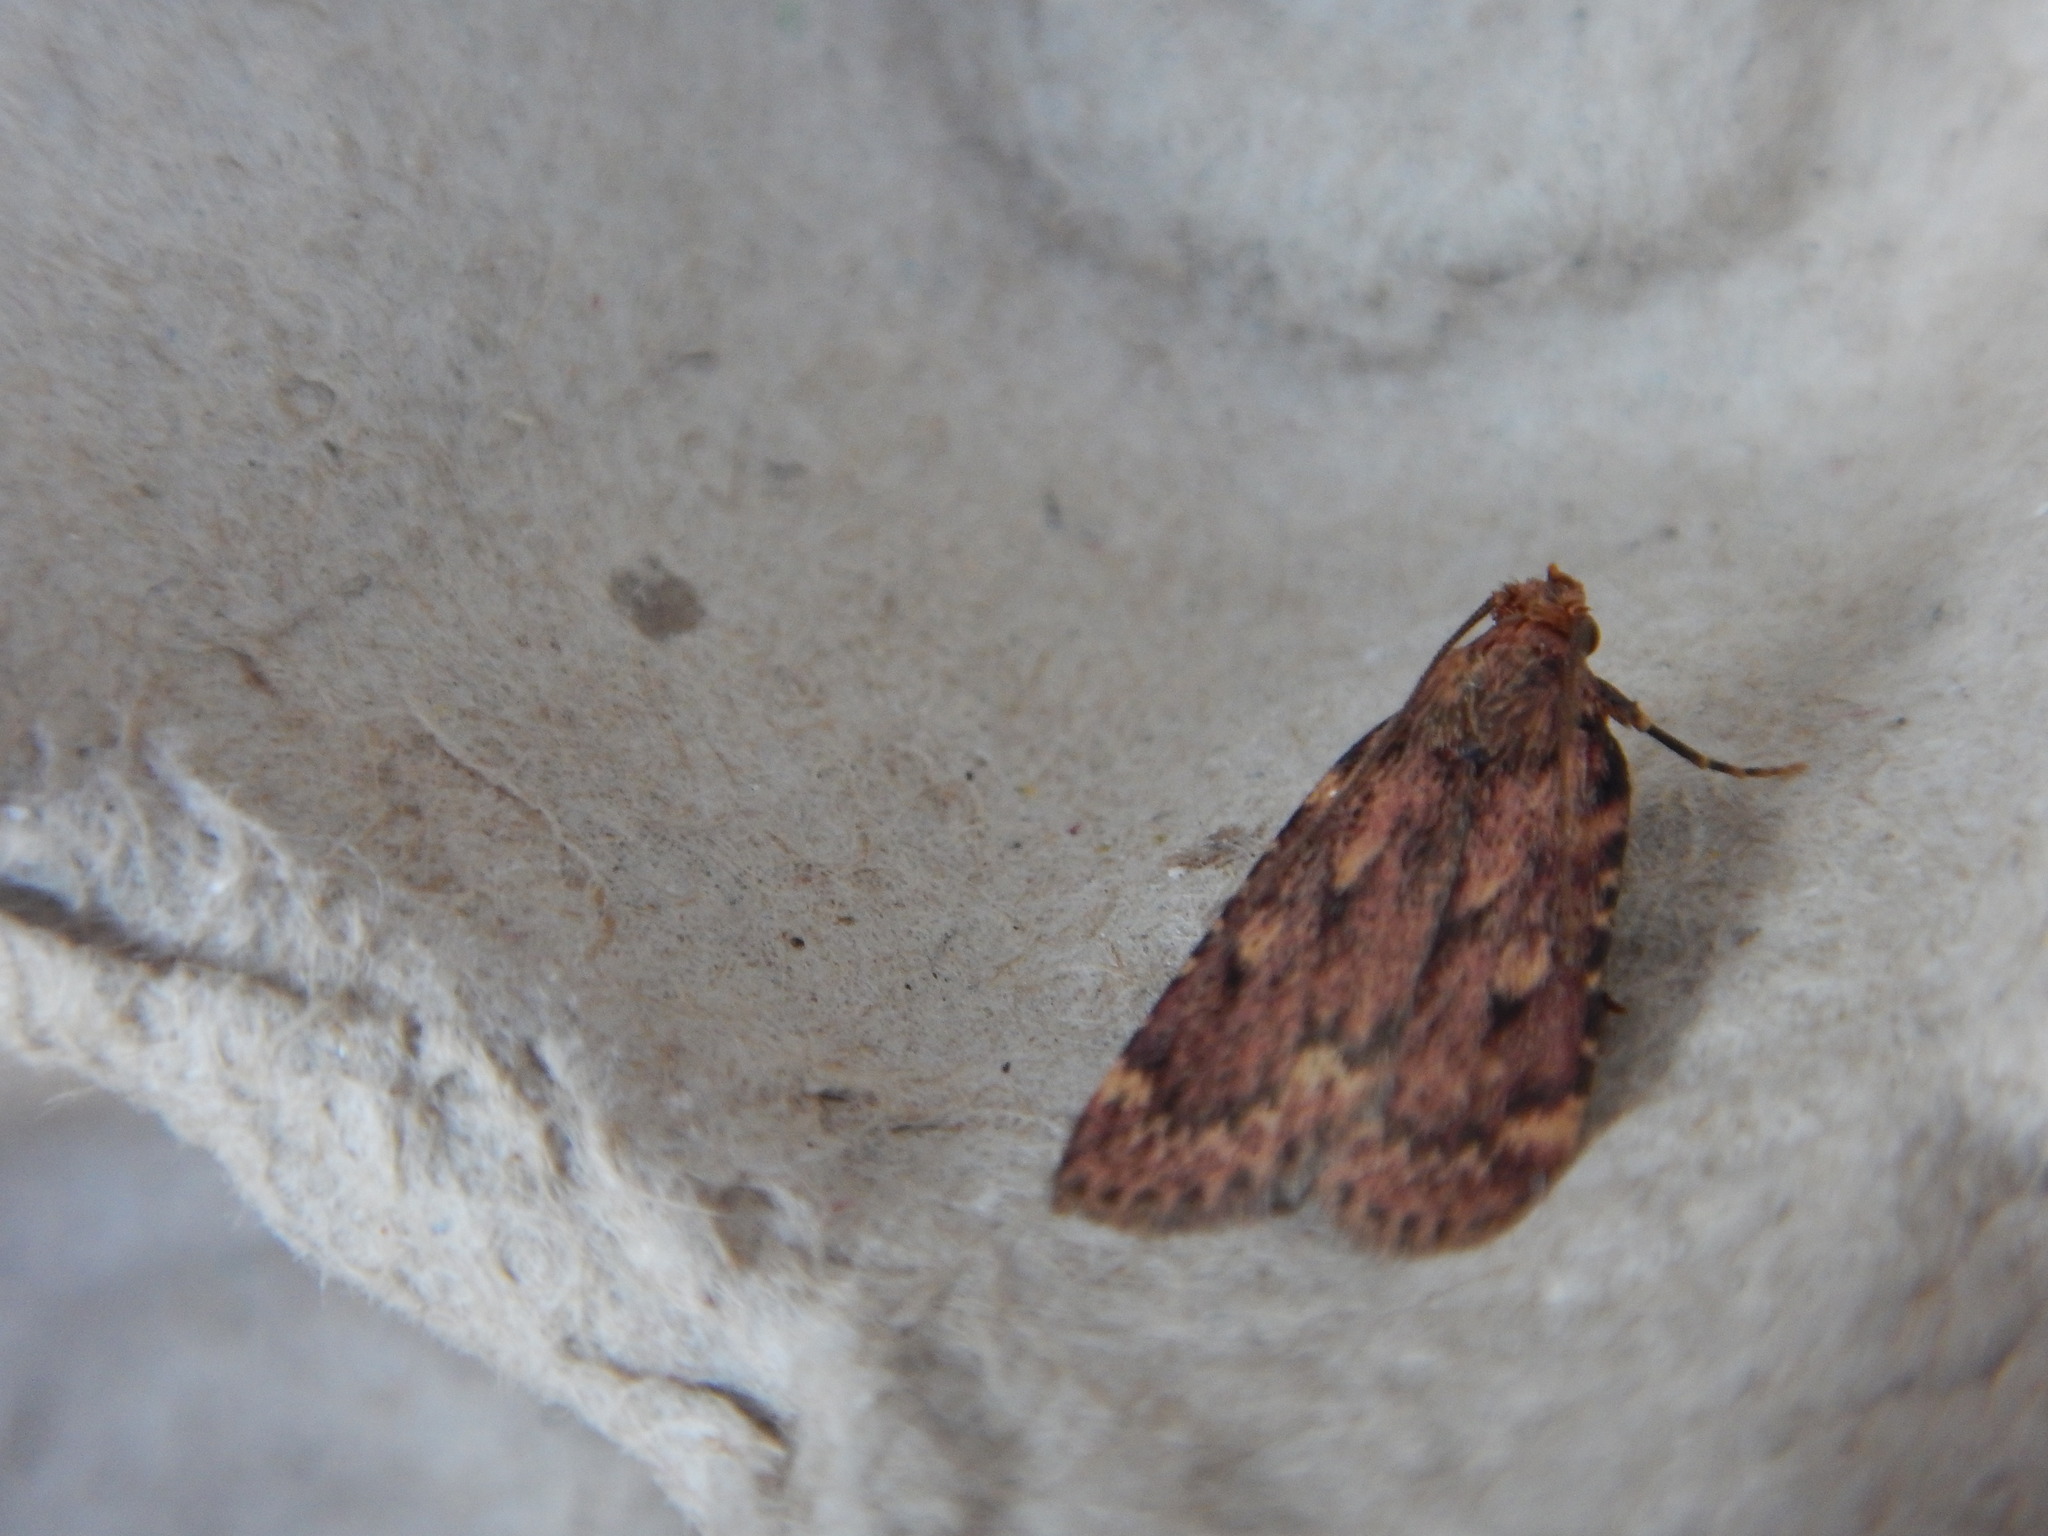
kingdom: Animalia
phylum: Arthropoda
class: Insecta
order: Lepidoptera
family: Pyralidae
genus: Aglossa
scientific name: Aglossa cuprina
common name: Grease moth
